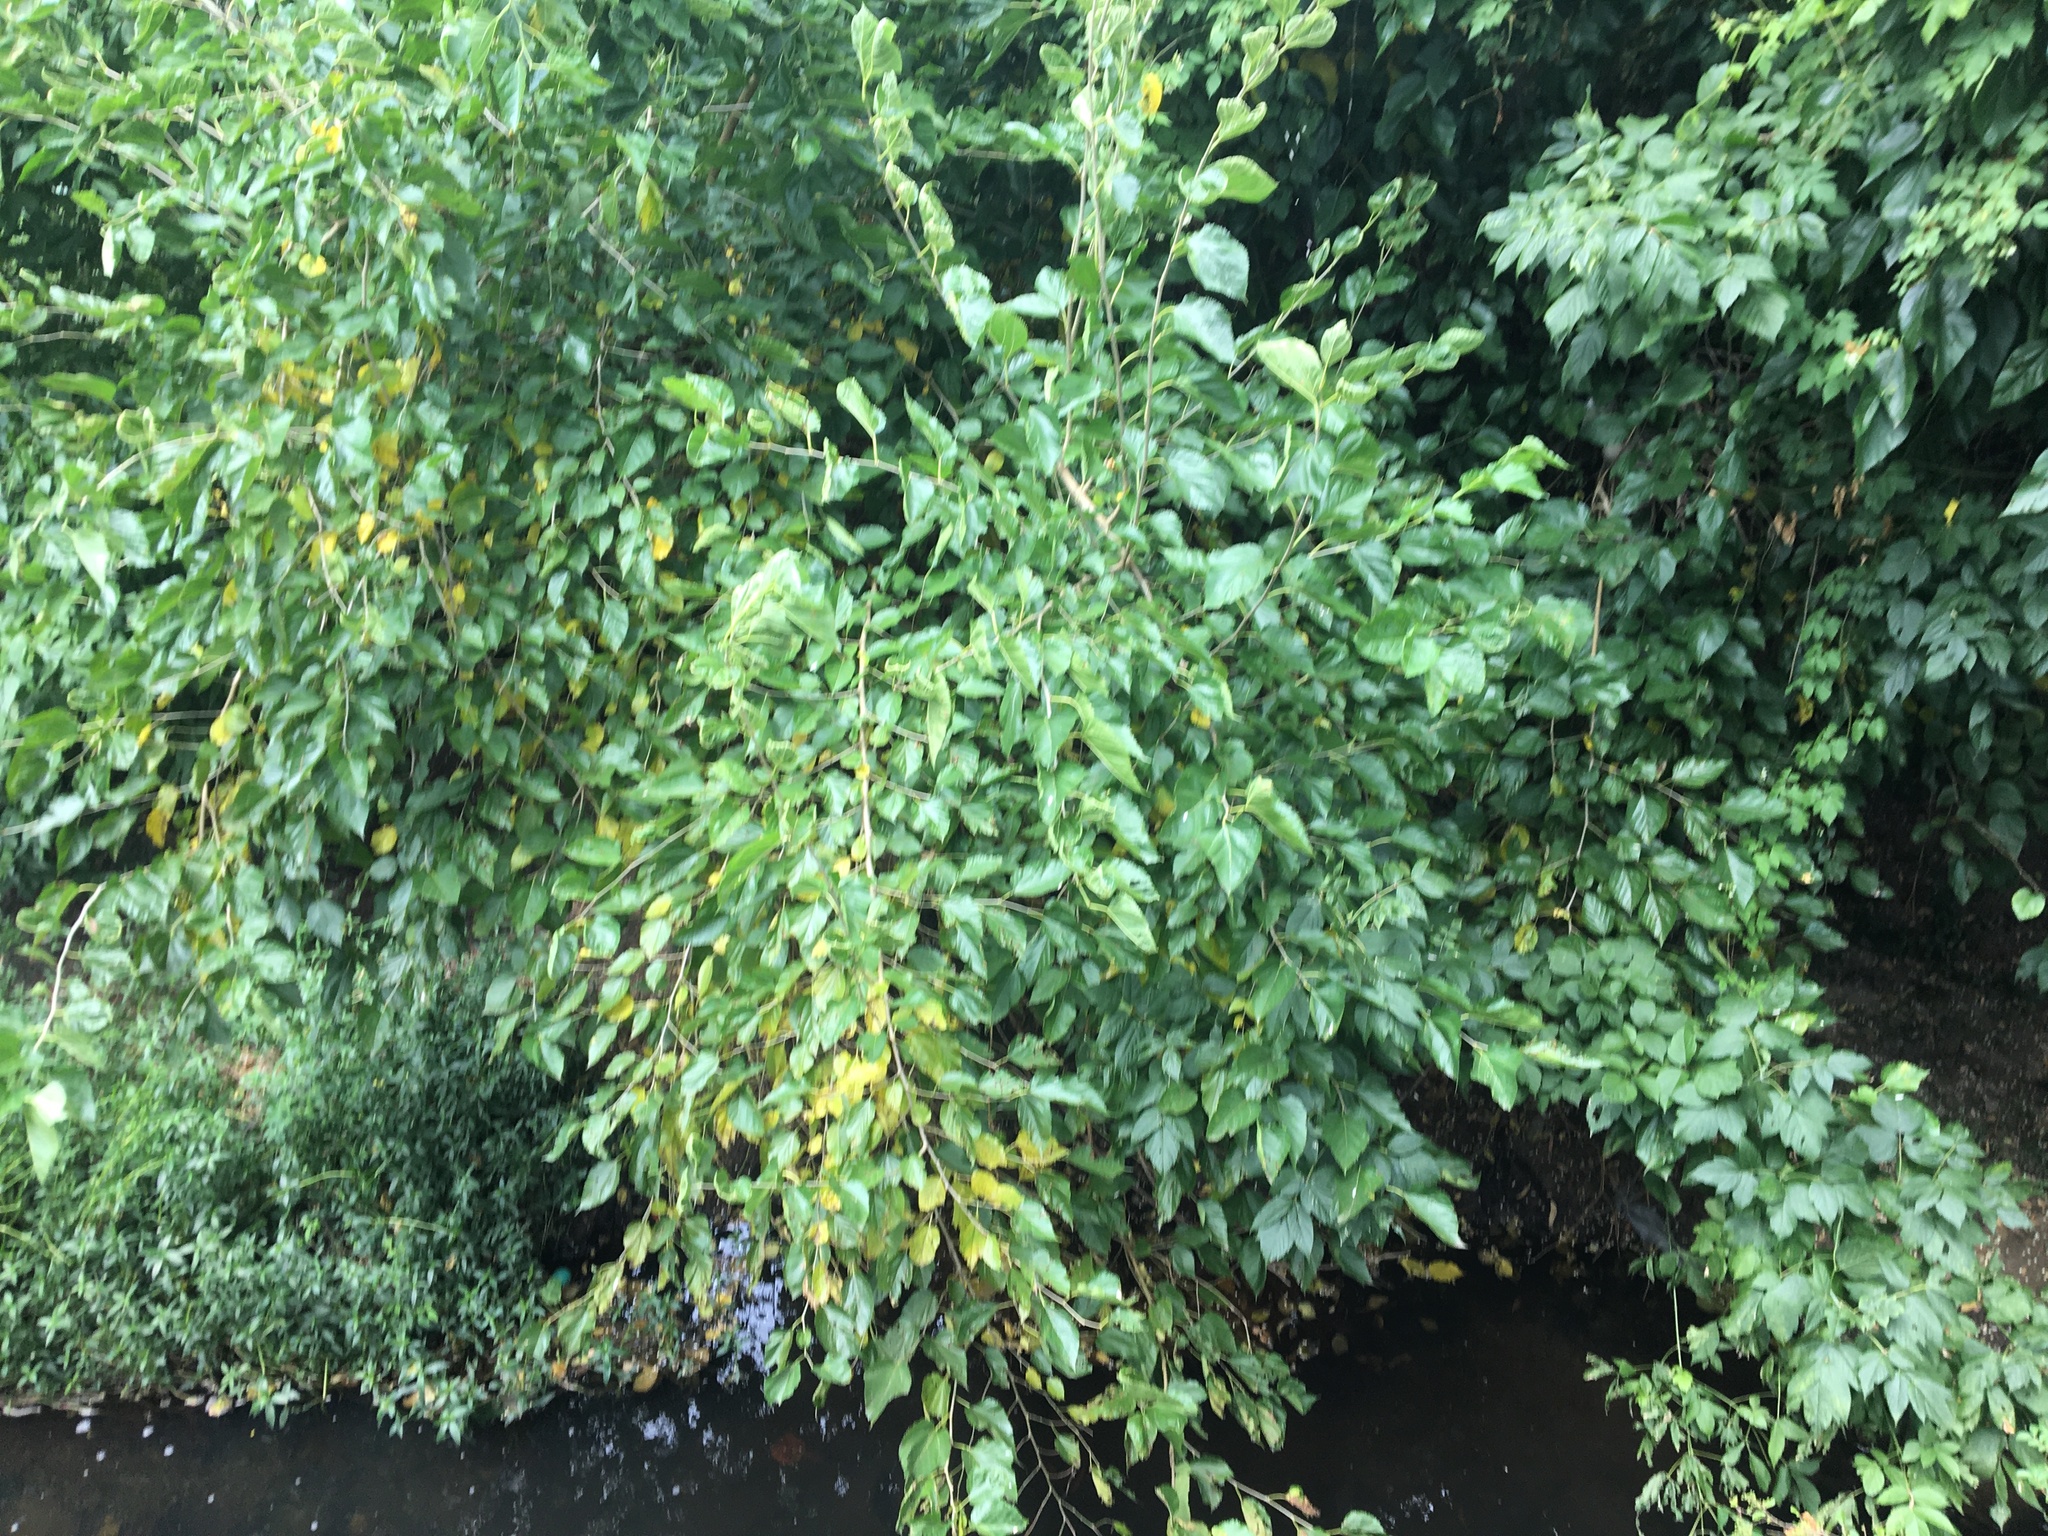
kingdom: Plantae
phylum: Tracheophyta
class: Magnoliopsida
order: Rosales
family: Moraceae
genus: Morus
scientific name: Morus alba
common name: White mulberry
